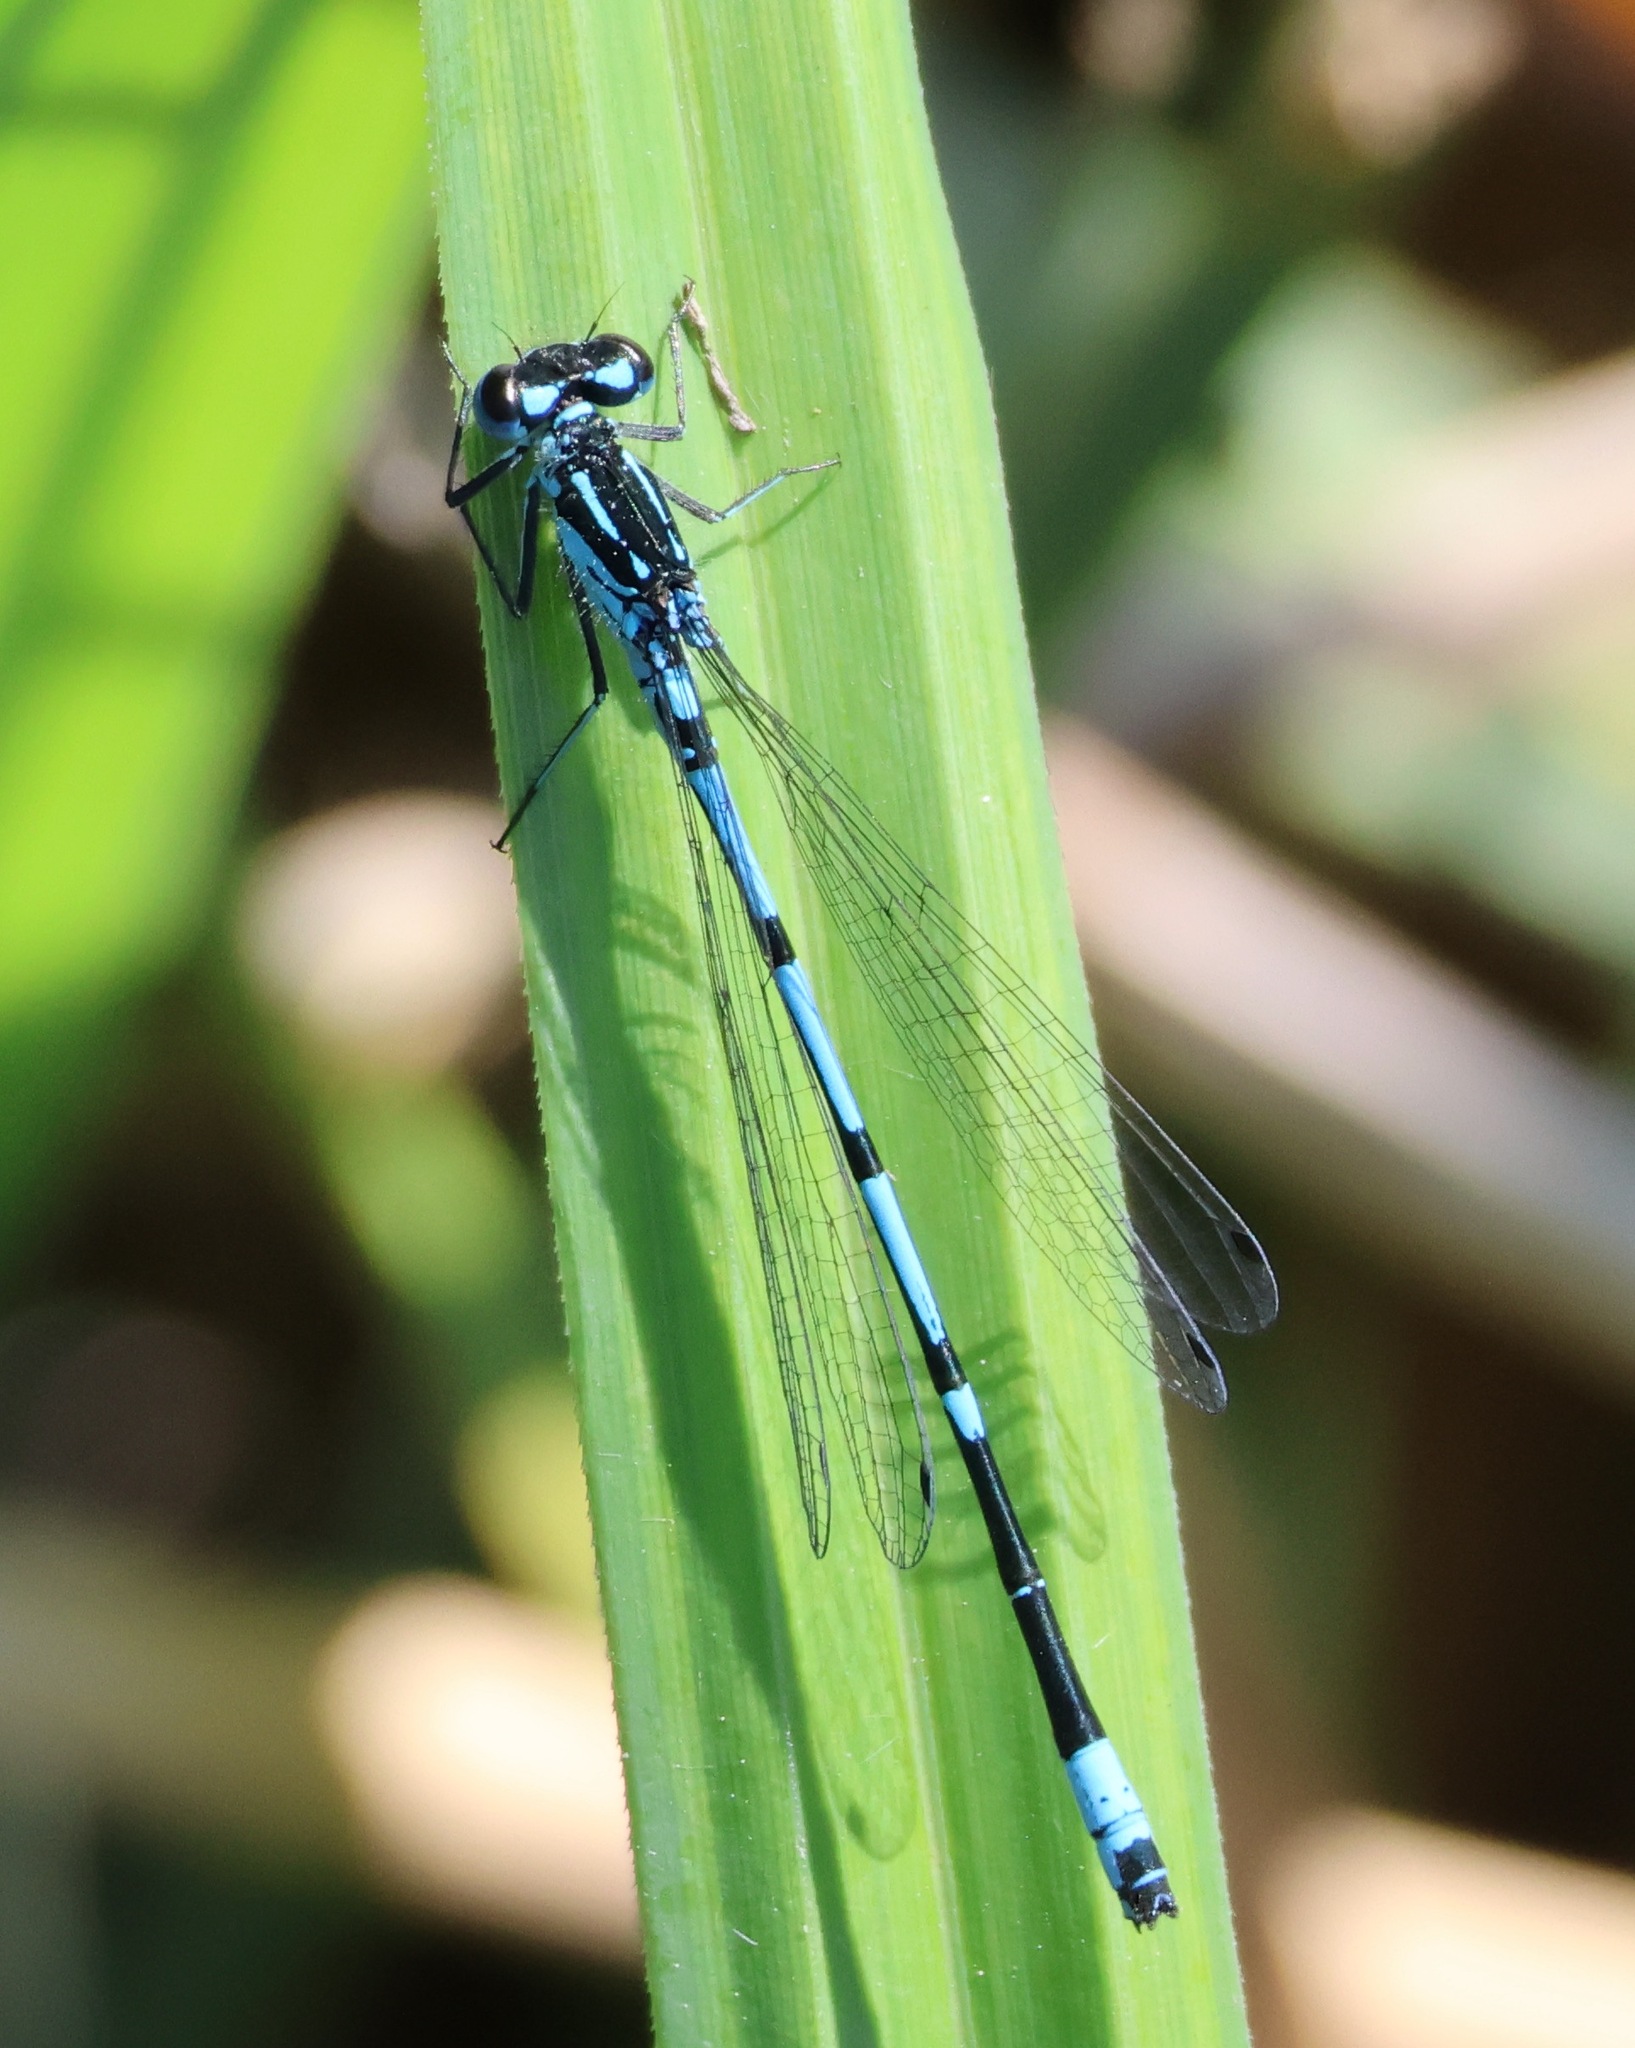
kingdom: Animalia
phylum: Arthropoda
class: Insecta
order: Odonata
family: Coenagrionidae
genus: Coenagrion
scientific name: Coenagrion pulchellum
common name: Variable bluet
